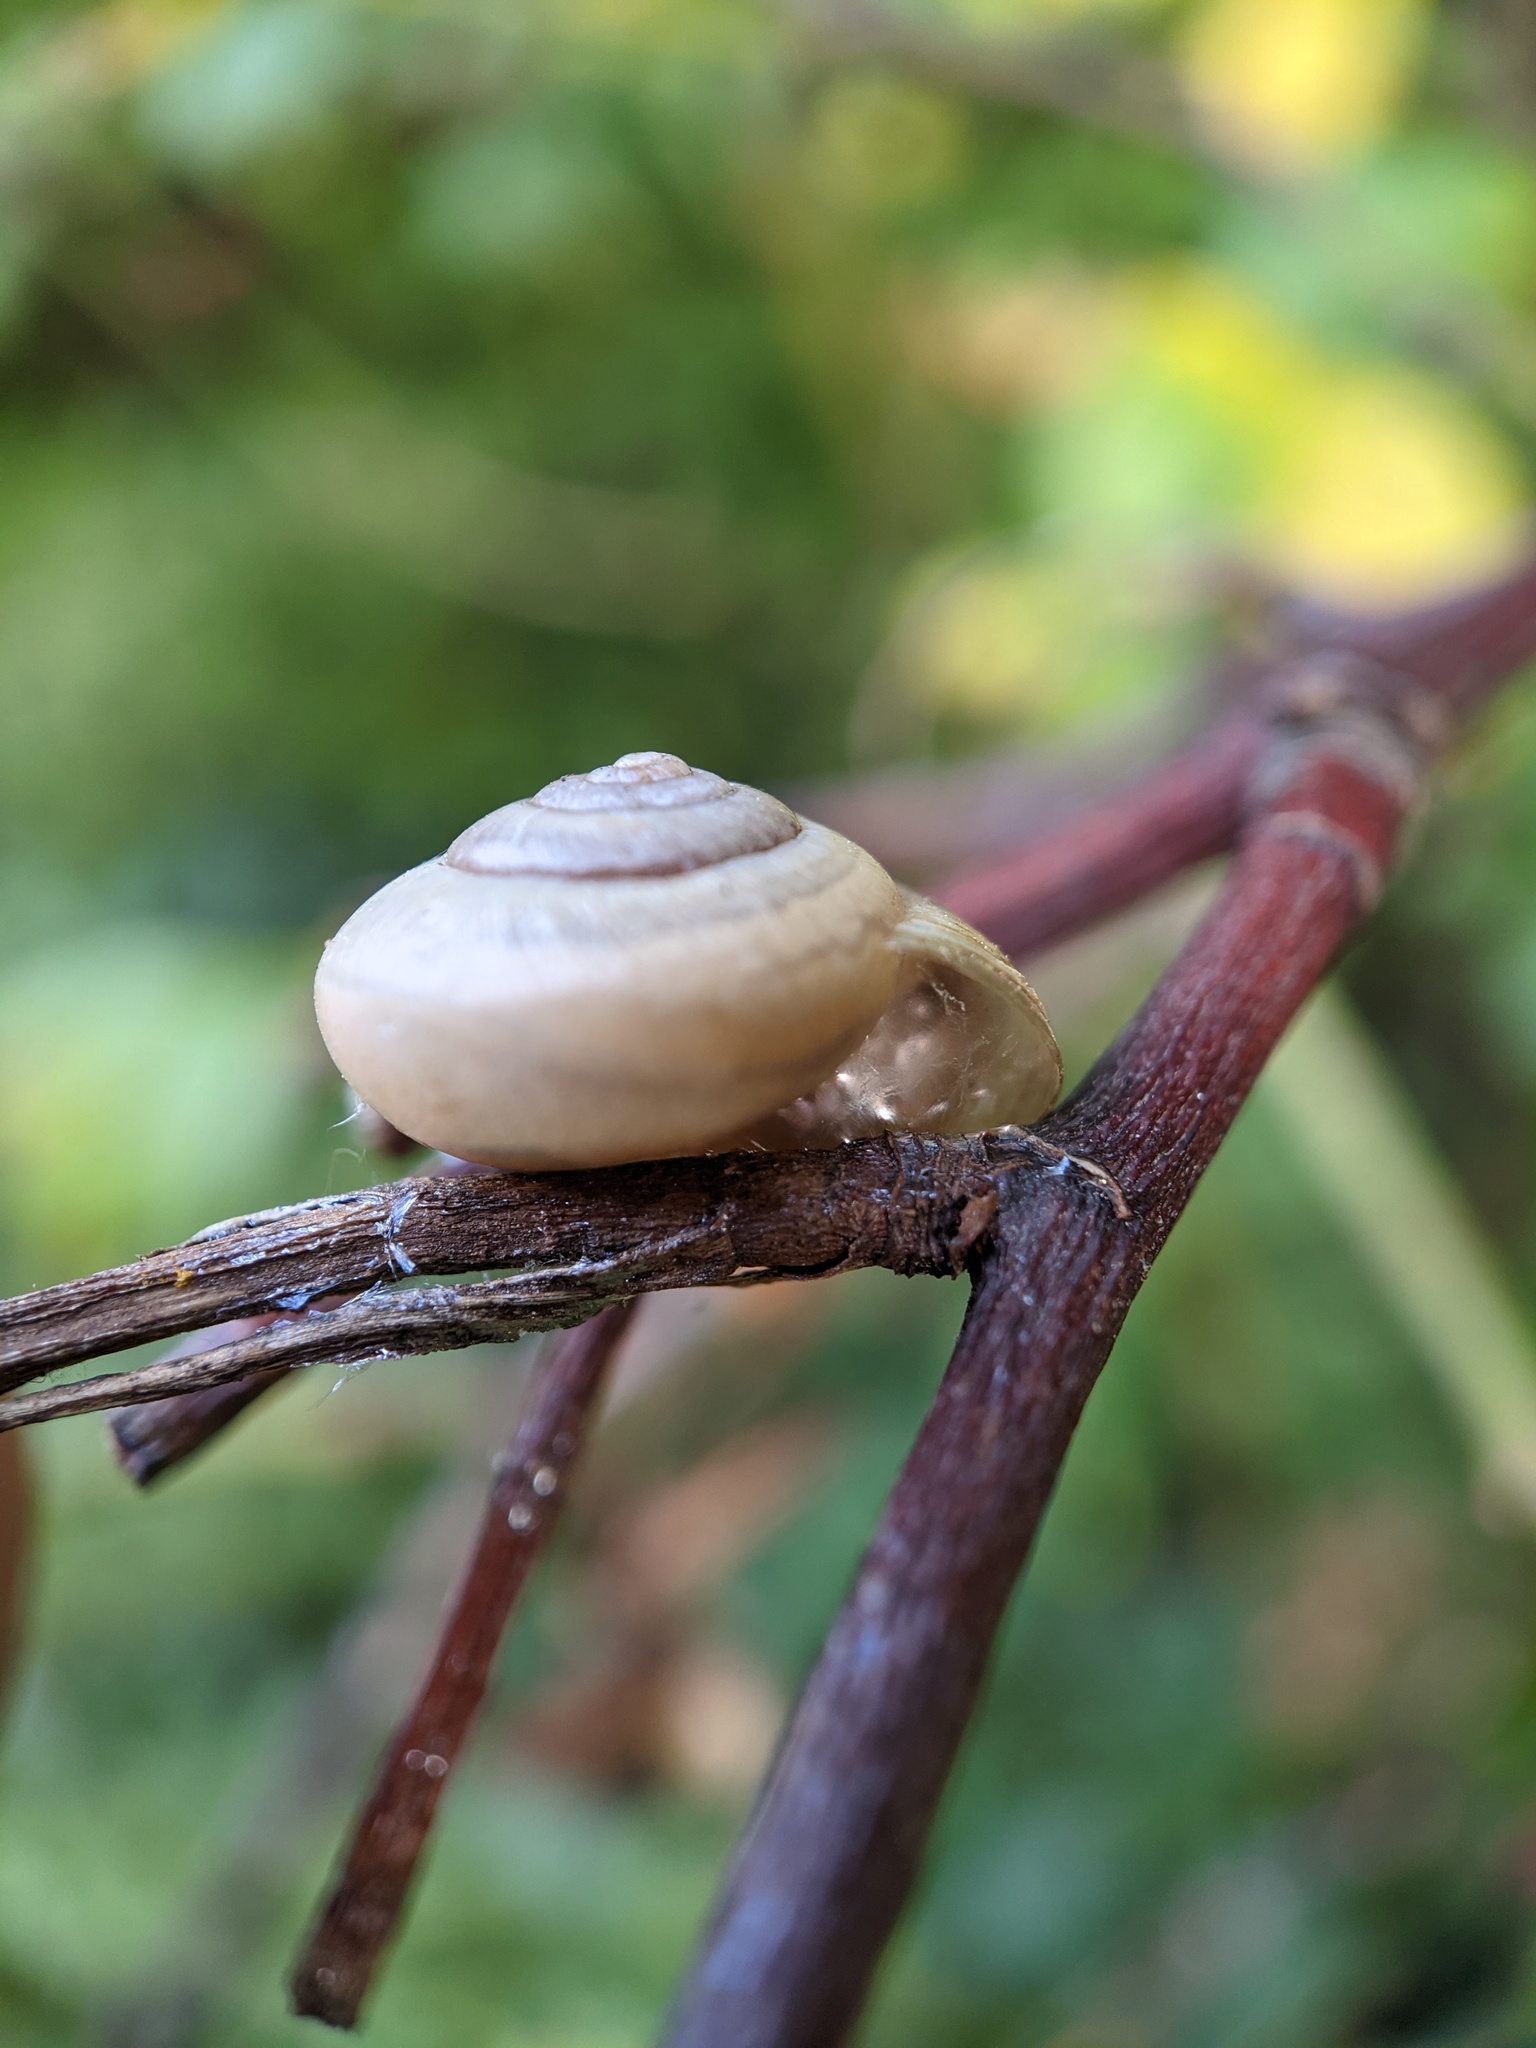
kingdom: Animalia
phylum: Mollusca
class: Gastropoda
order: Stylommatophora
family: Hygromiidae
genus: Monacha
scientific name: Monacha cantiana
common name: Kentish snail
